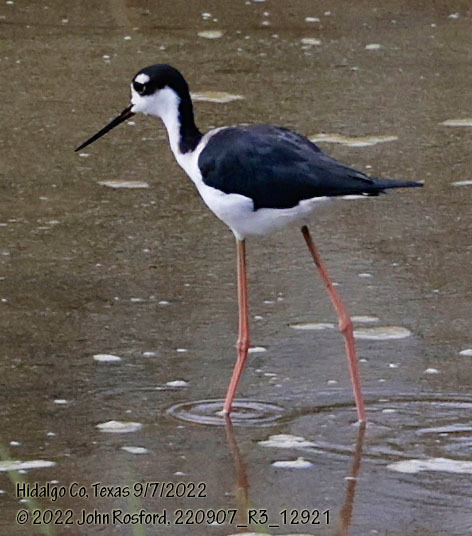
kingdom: Animalia
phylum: Chordata
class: Aves
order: Charadriiformes
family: Recurvirostridae
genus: Himantopus
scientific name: Himantopus mexicanus
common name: Black-necked stilt
